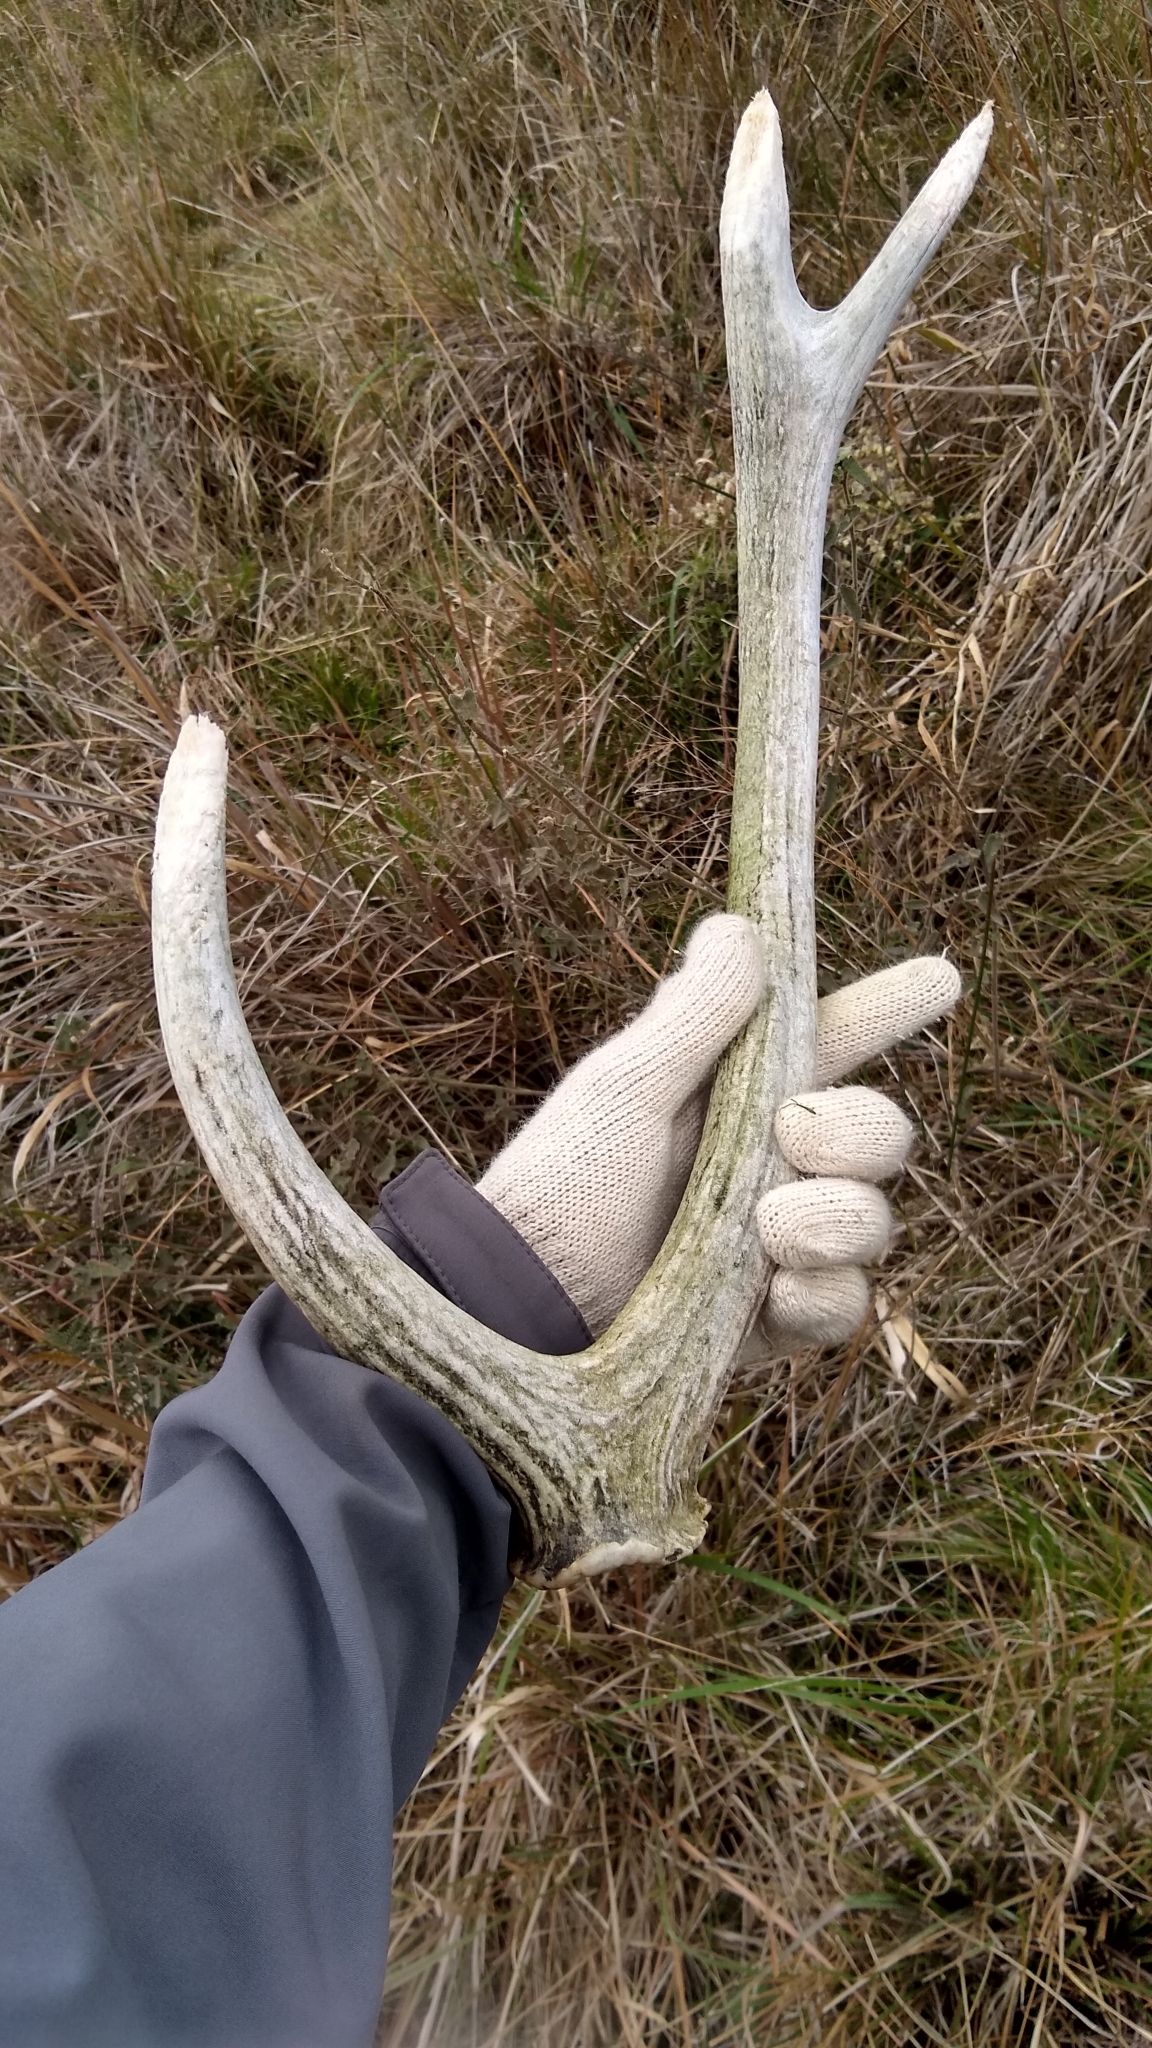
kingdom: Animalia
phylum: Chordata
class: Mammalia
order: Artiodactyla
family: Cervidae
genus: Axis
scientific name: Axis axis
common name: Chital
